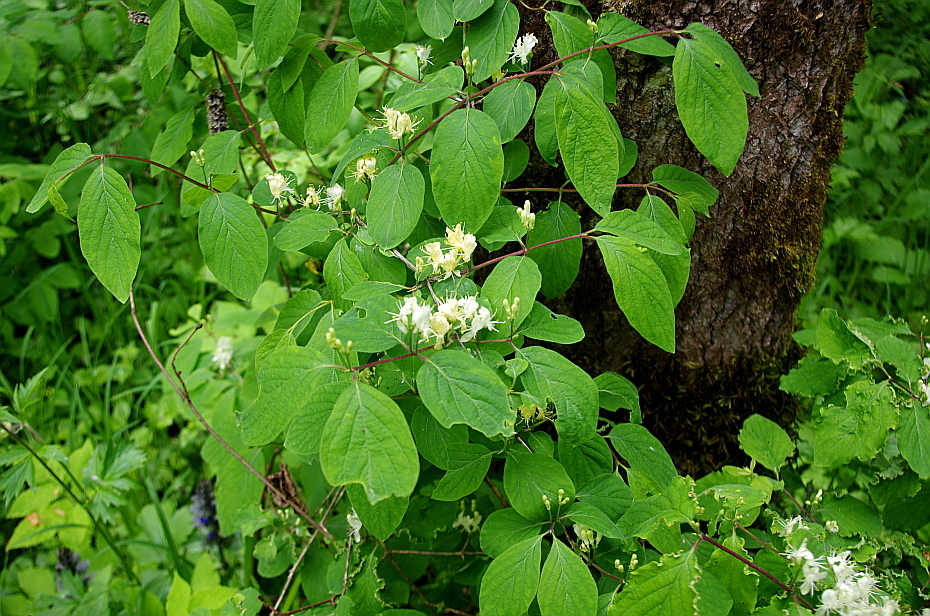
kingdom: Plantae
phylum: Tracheophyta
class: Magnoliopsida
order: Dipsacales
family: Caprifoliaceae
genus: Lonicera
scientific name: Lonicera xylosteum
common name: Fly honeysuckle
